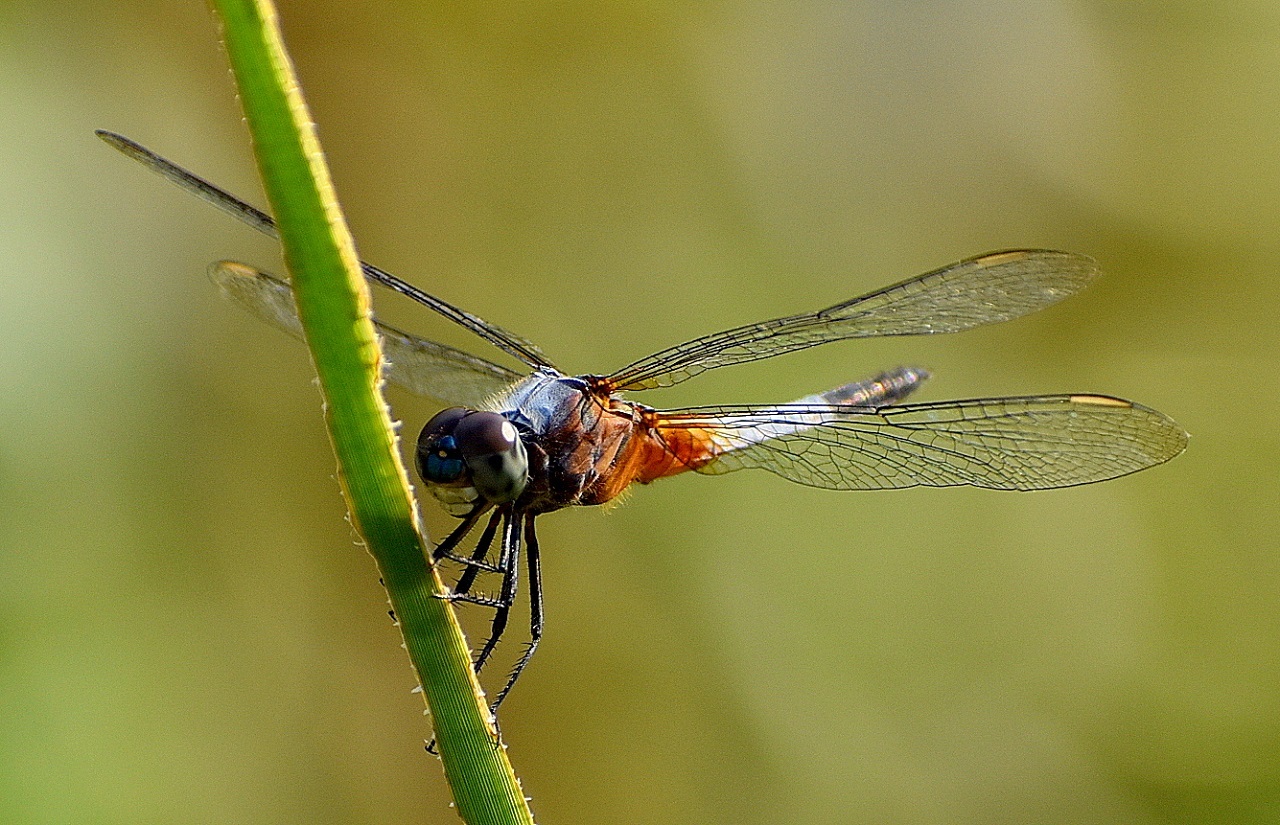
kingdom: Animalia
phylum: Arthropoda
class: Insecta
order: Odonata
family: Libellulidae
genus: Brachydiplax
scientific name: Brachydiplax chalybea
